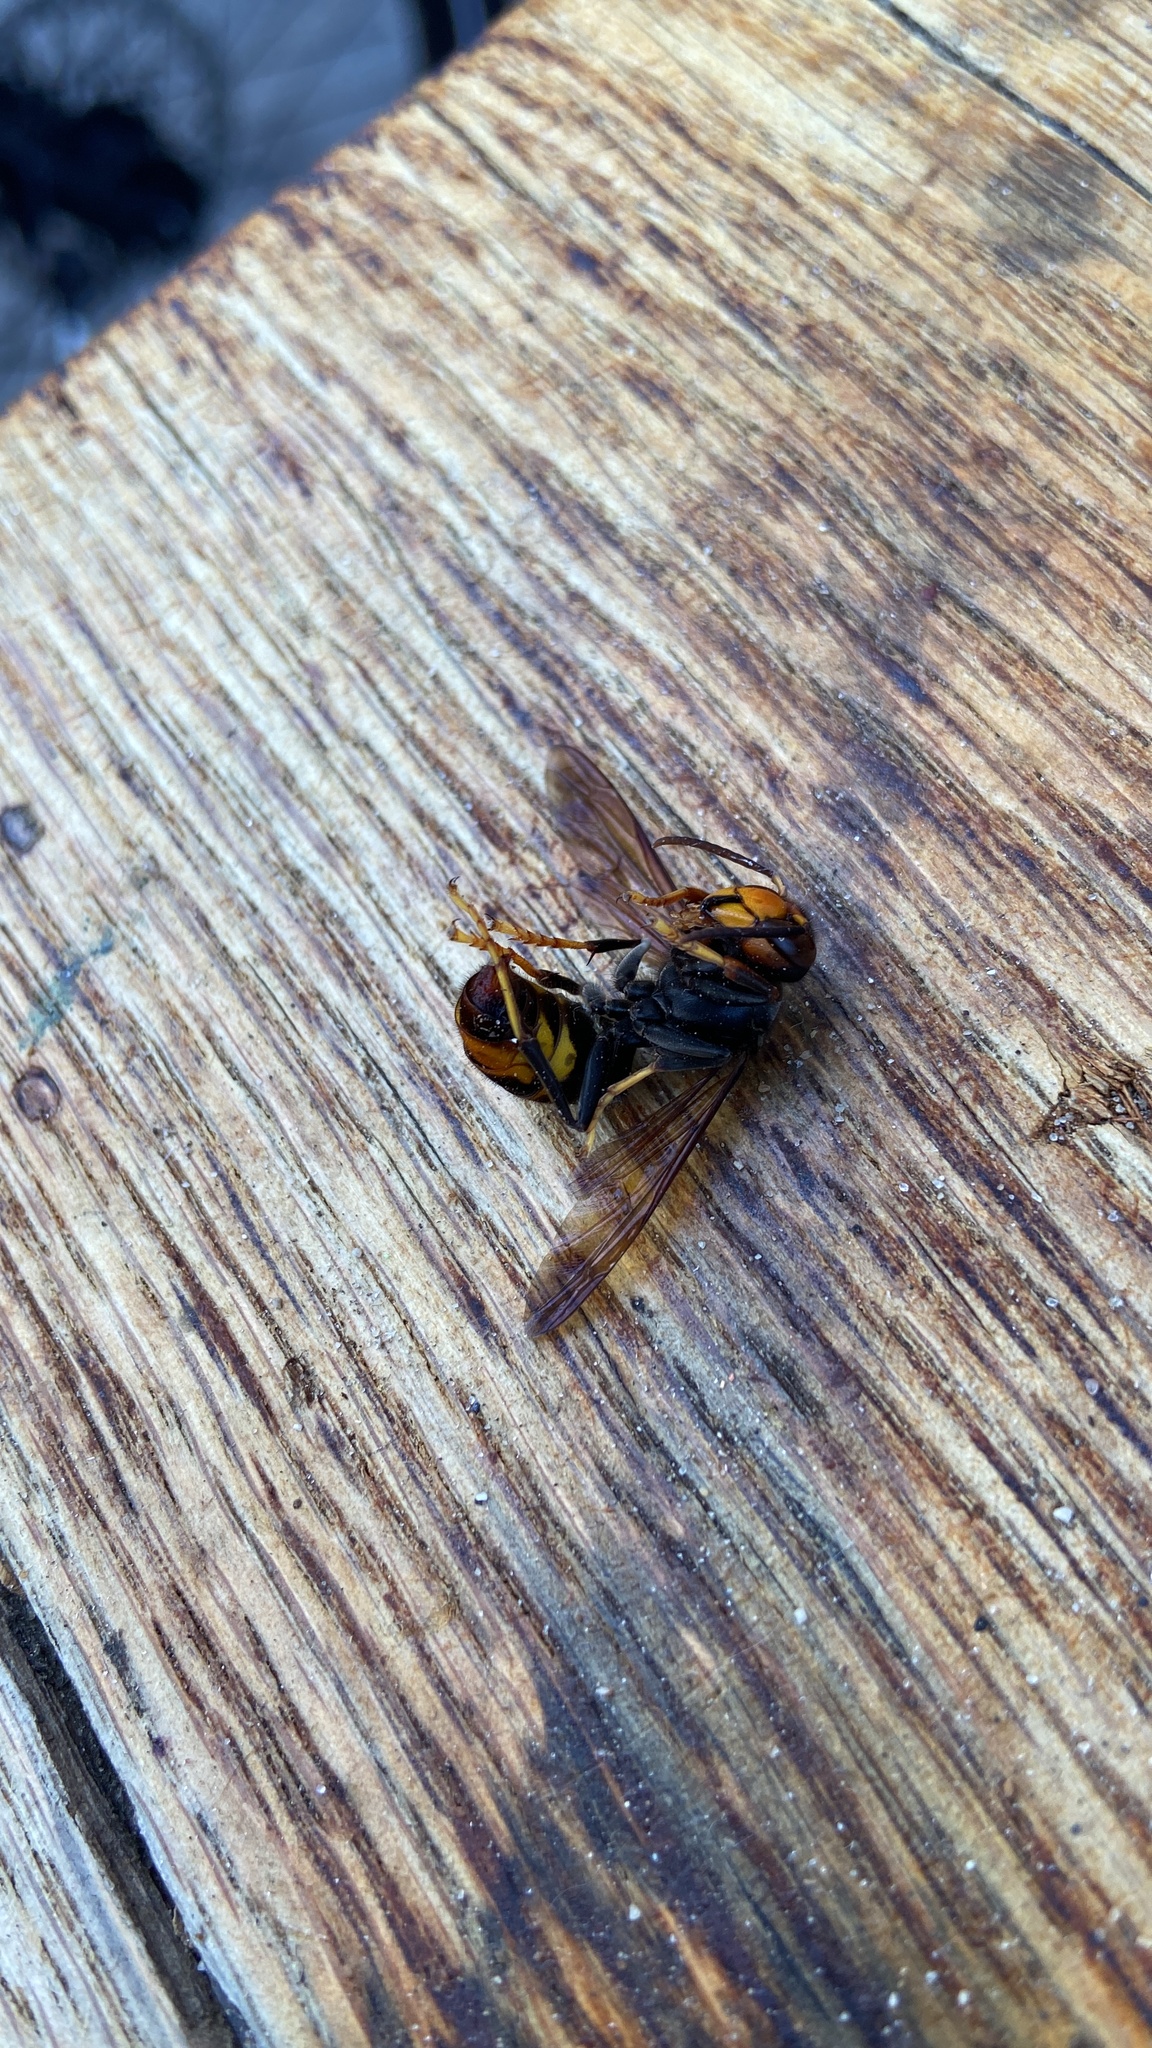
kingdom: Animalia
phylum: Arthropoda
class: Insecta
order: Hymenoptera
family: Vespidae
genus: Vespa
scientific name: Vespa velutina
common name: Asian hornet
